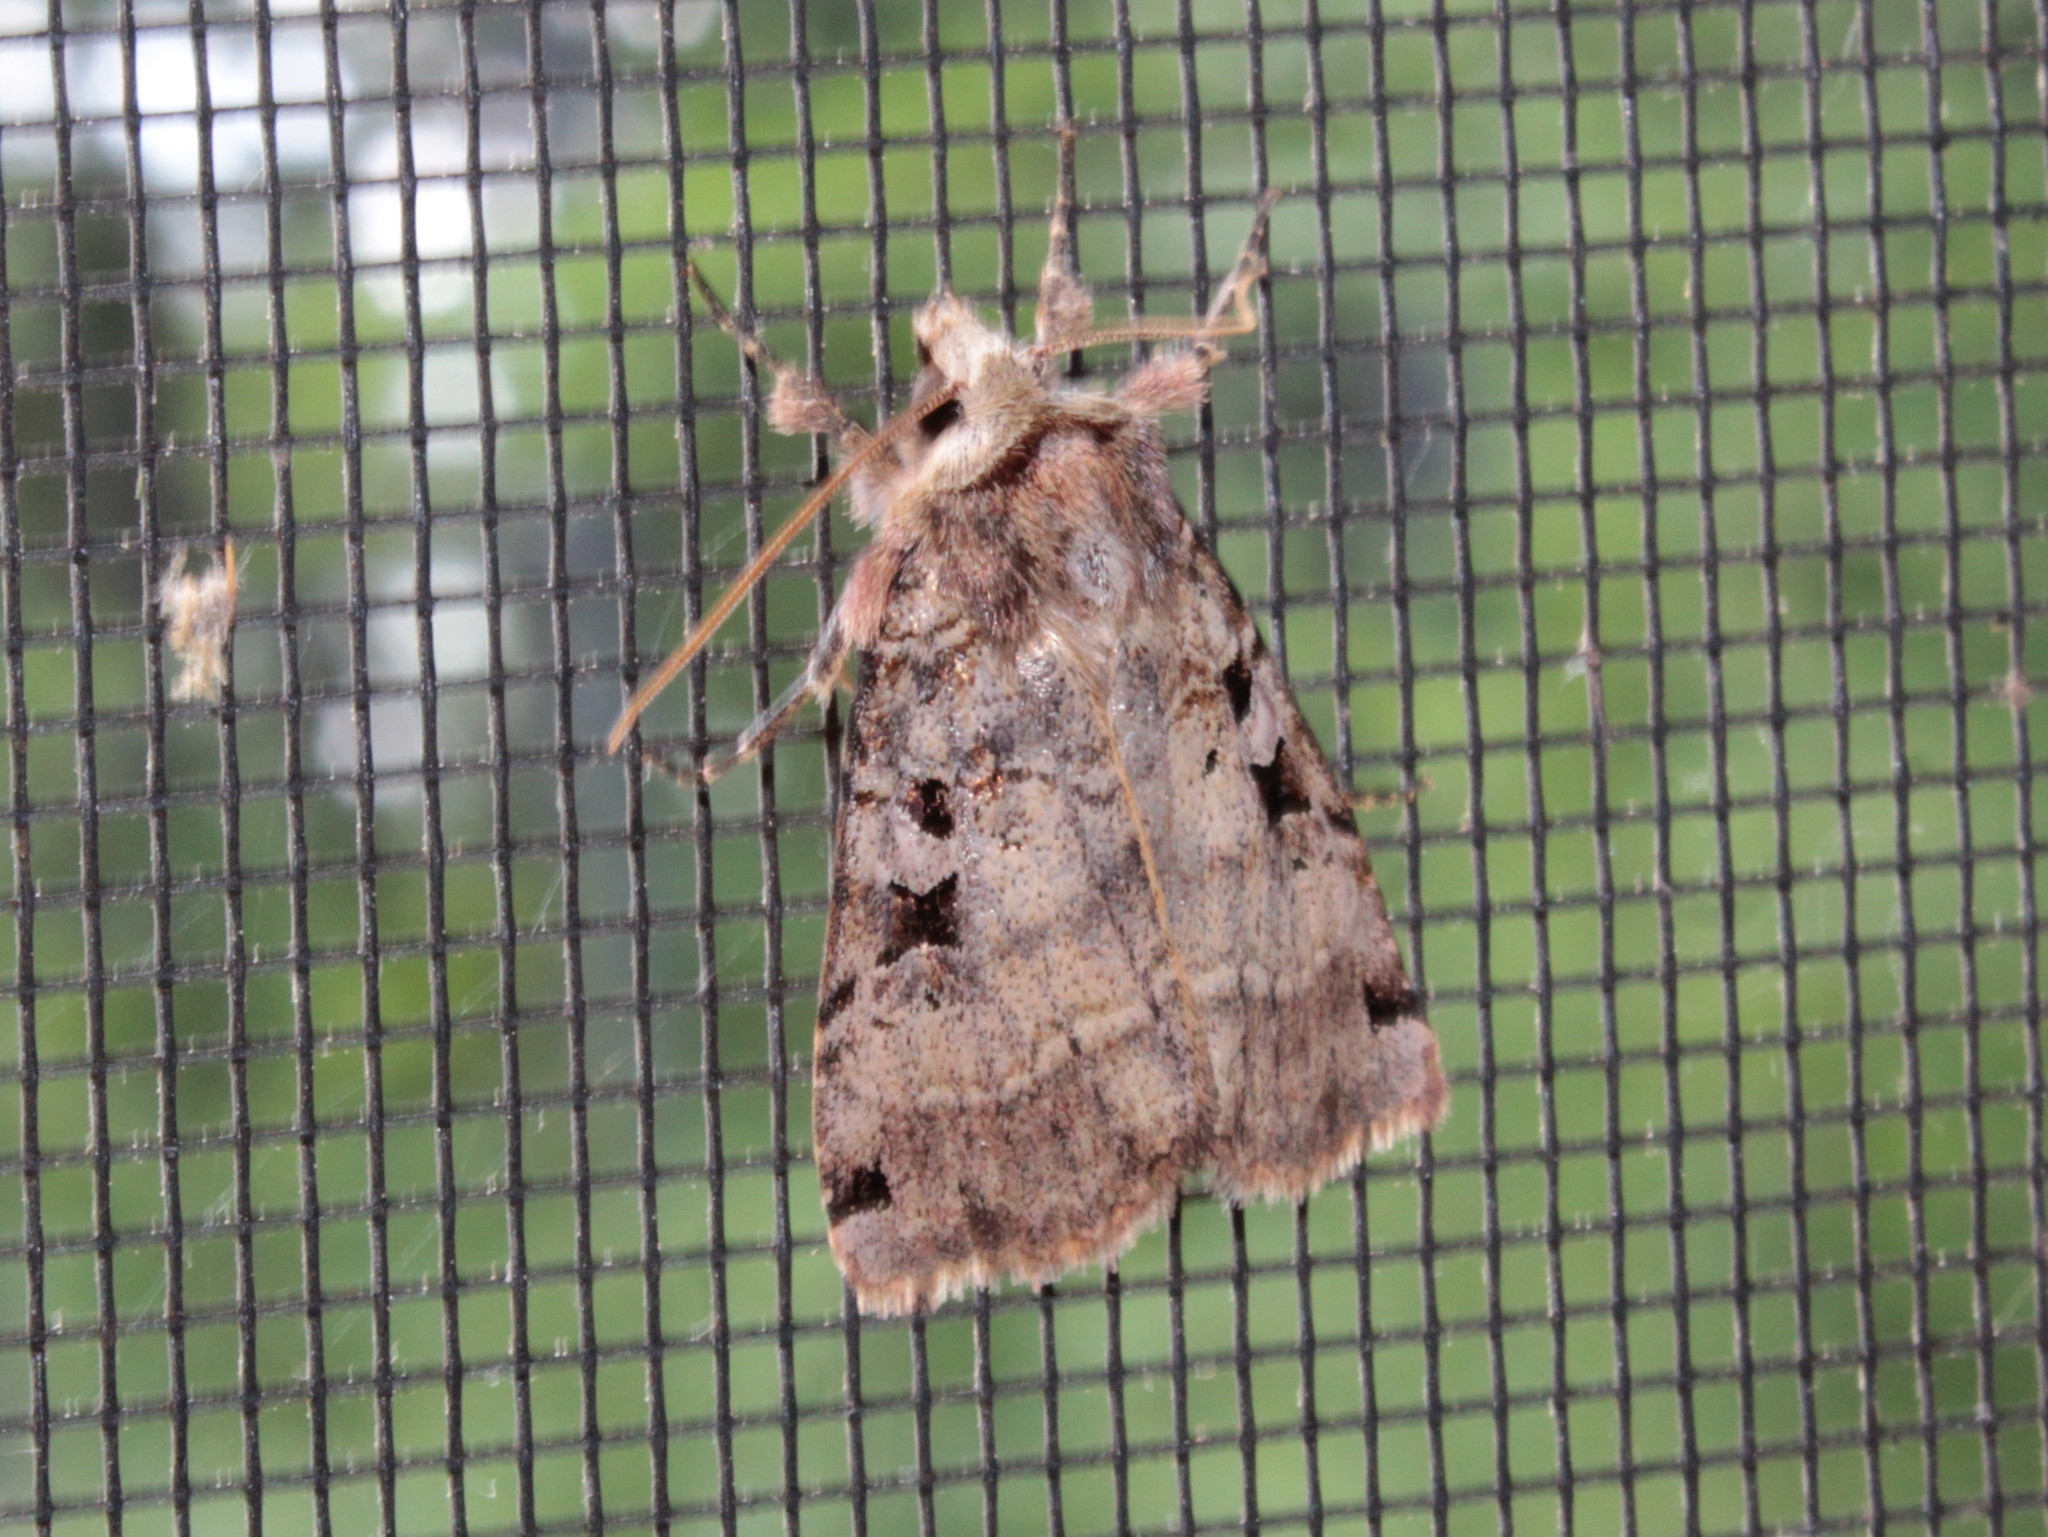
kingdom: Animalia
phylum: Arthropoda
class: Insecta
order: Lepidoptera
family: Noctuidae
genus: Xestia
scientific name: Xestia normaniana
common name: Norman's dart moth
